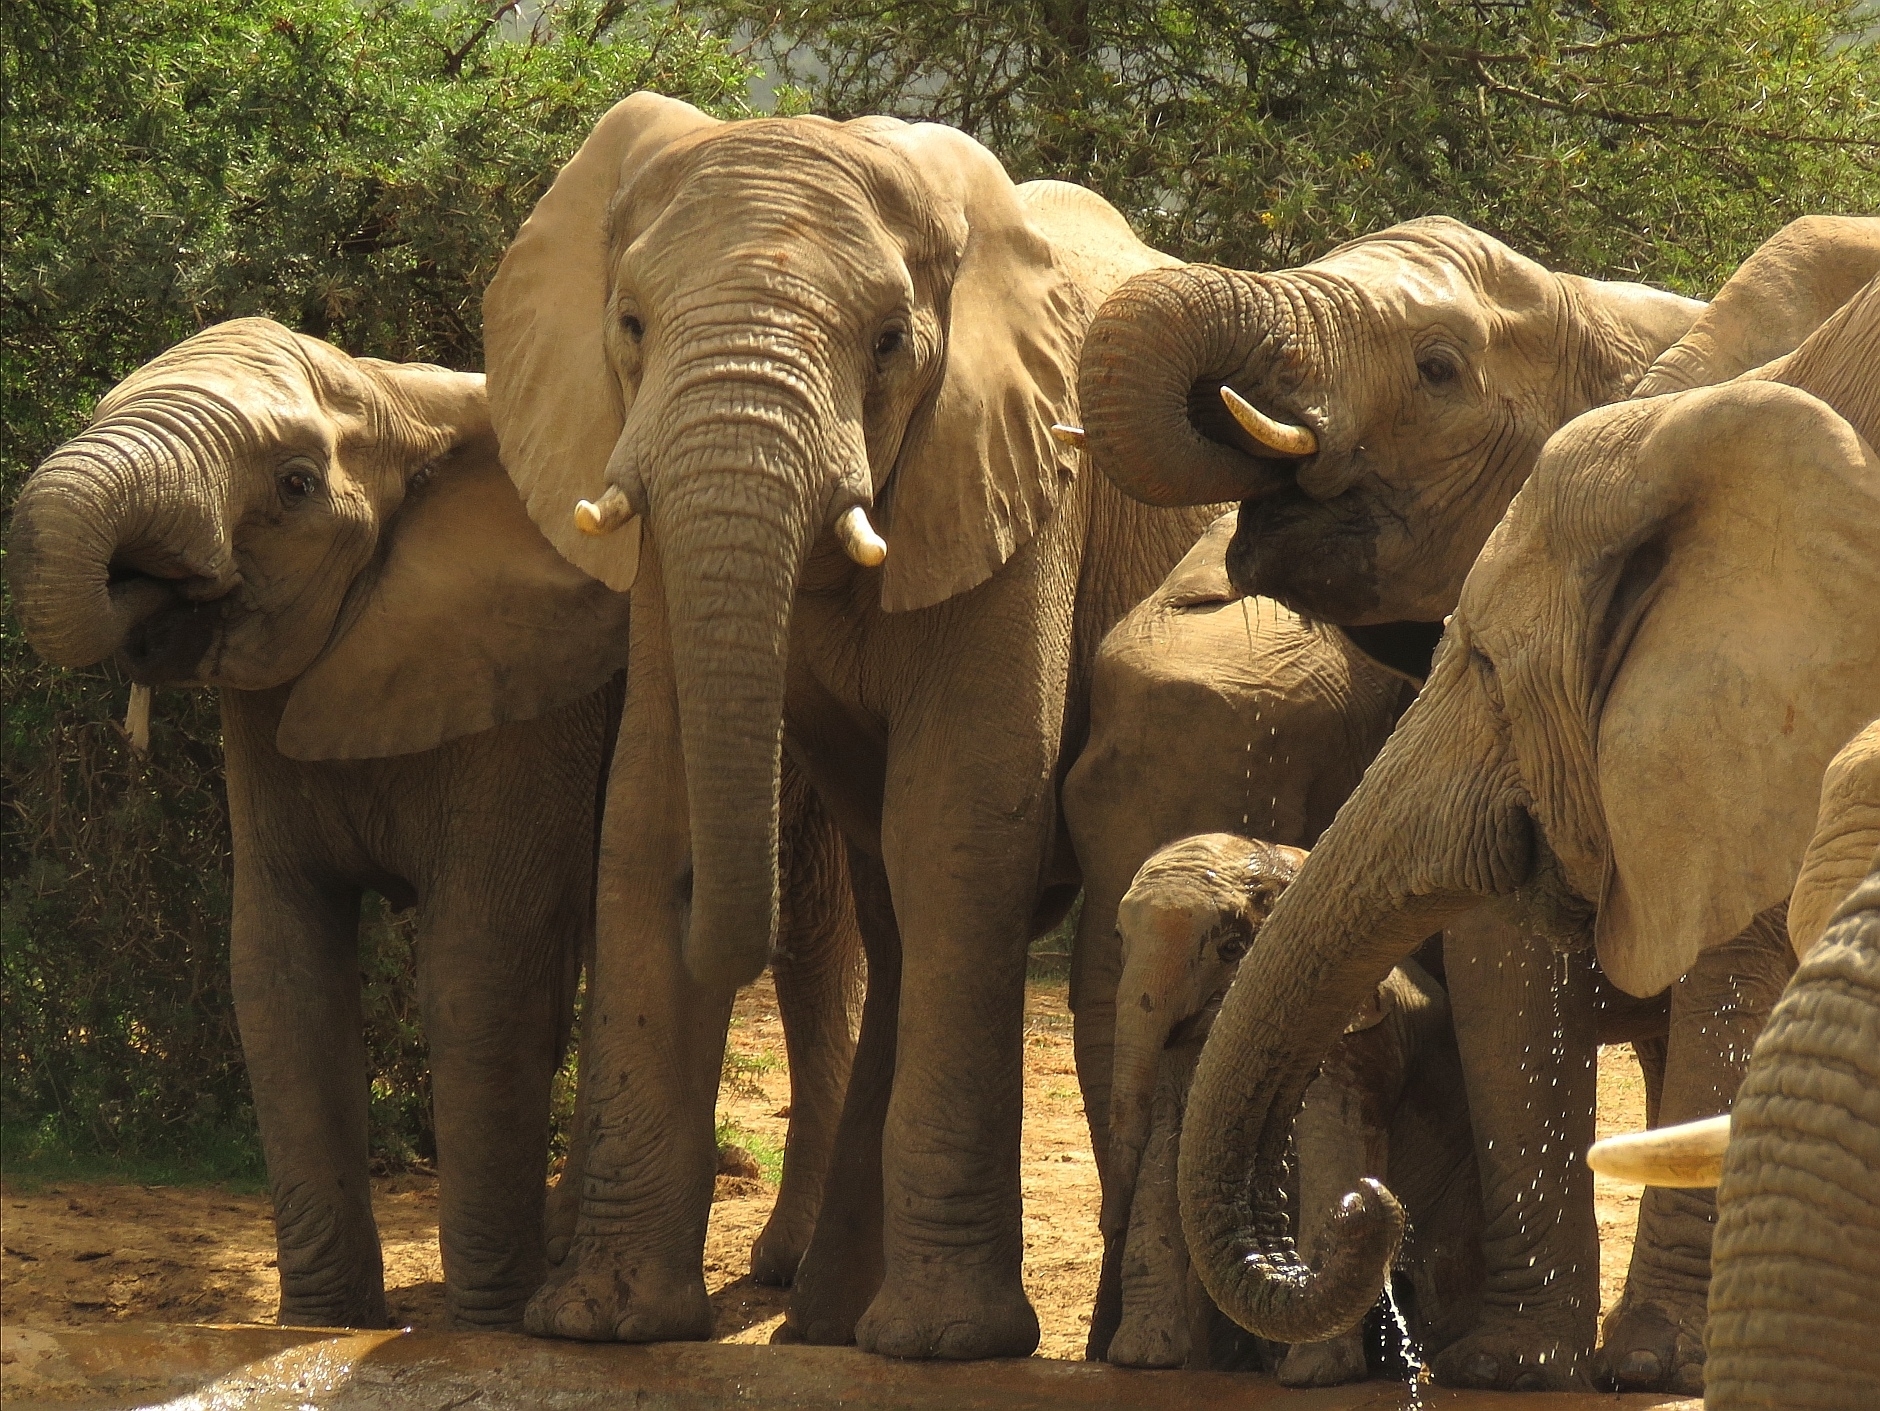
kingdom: Animalia
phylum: Chordata
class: Mammalia
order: Proboscidea
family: Elephantidae
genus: Loxodonta
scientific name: Loxodonta africana
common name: African elephant
